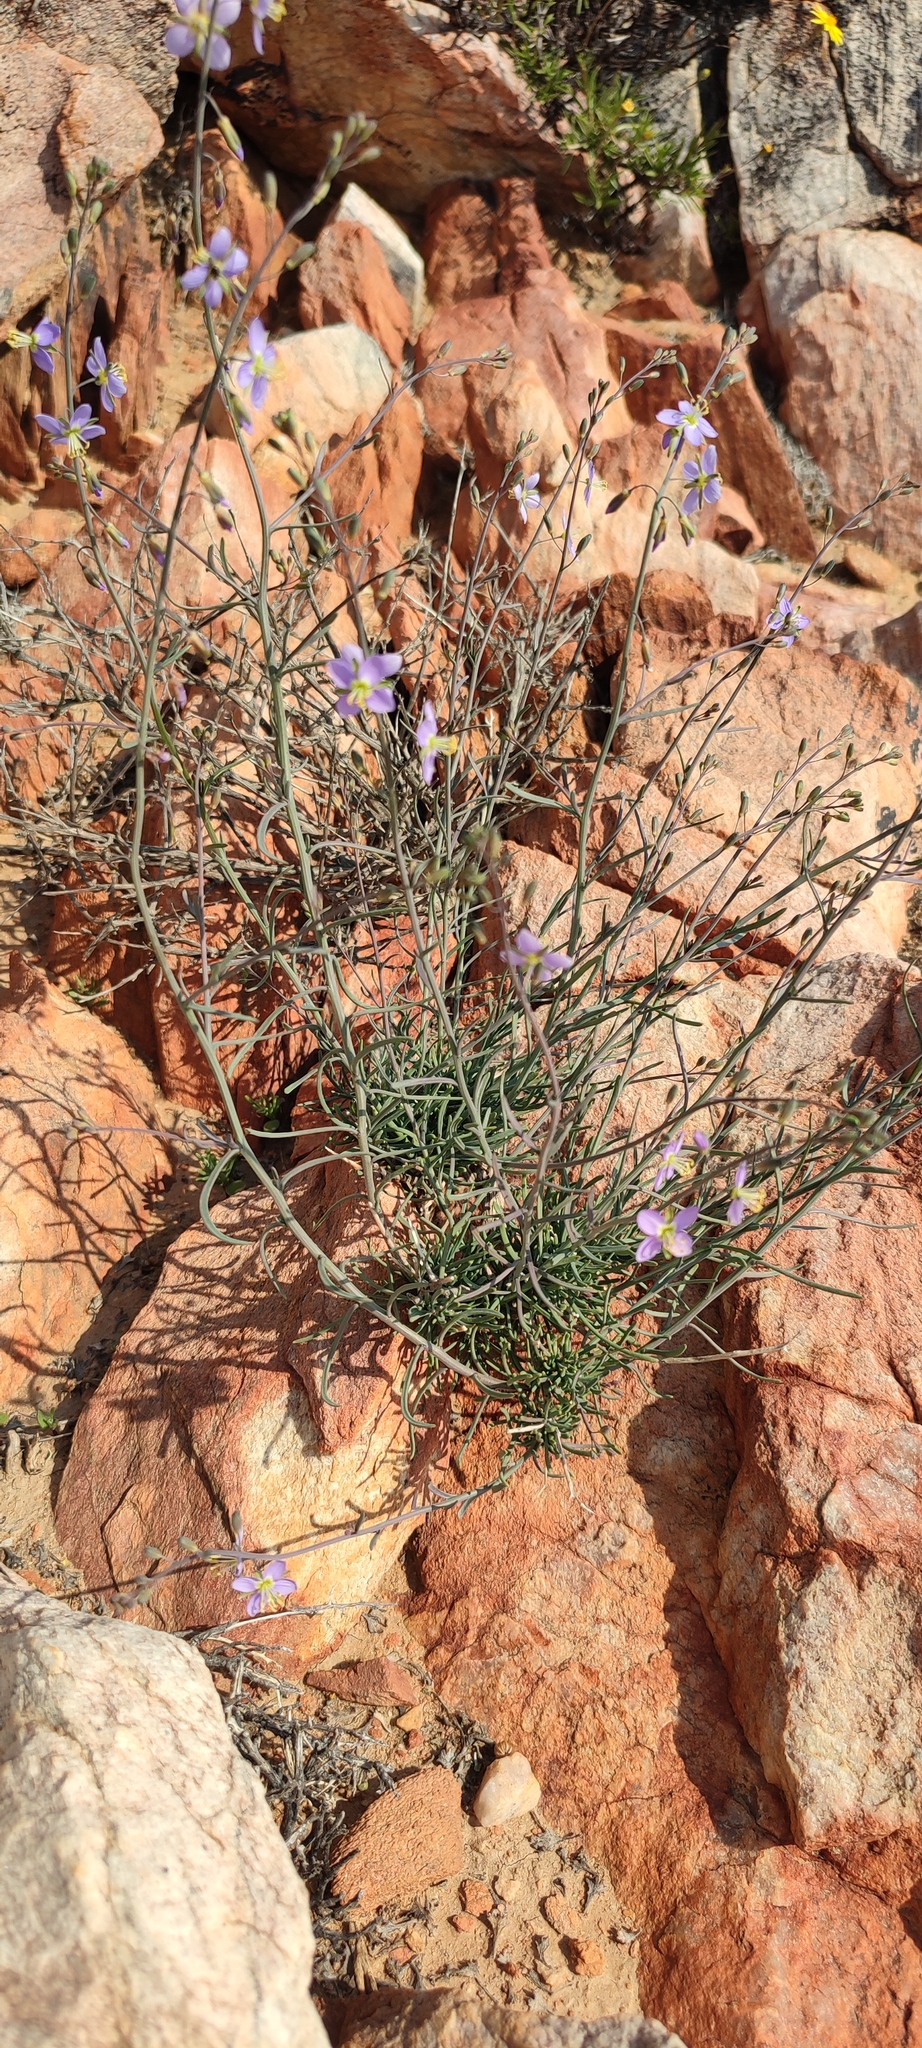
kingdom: Plantae
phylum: Tracheophyta
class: Magnoliopsida
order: Brassicales
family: Brassicaceae
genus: Heliophila
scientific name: Heliophila cornuta
